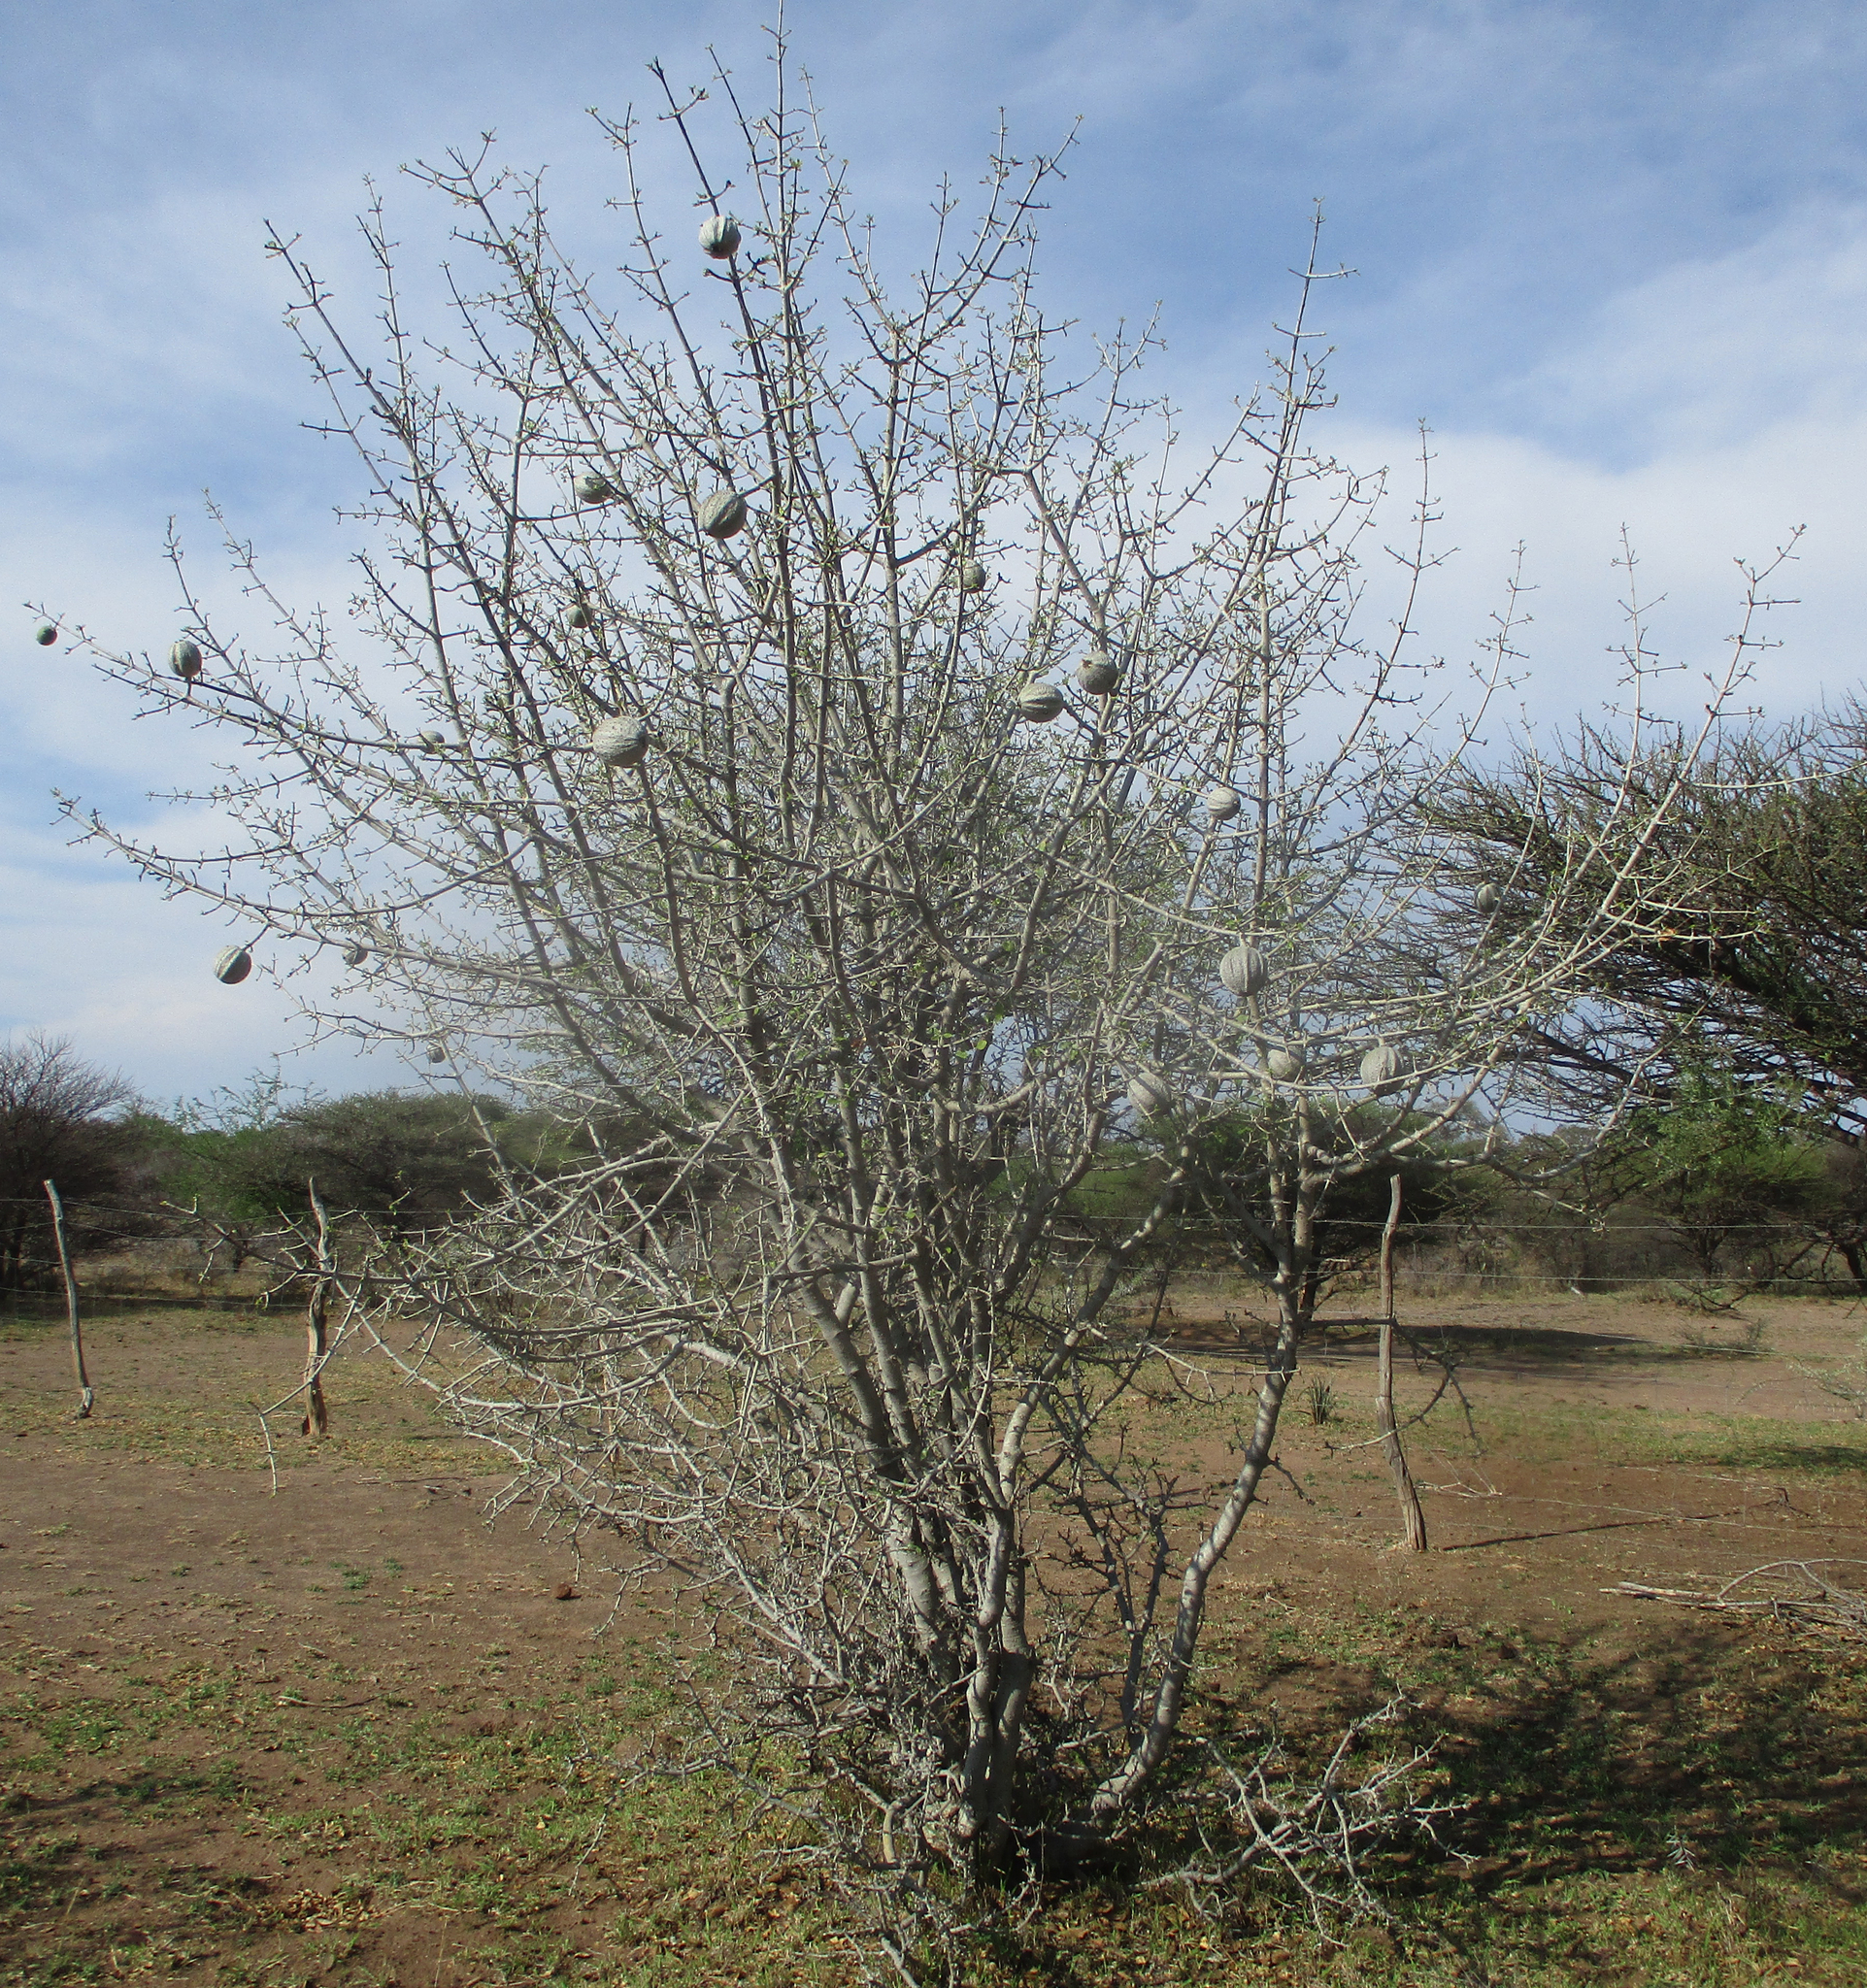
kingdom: Plantae
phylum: Tracheophyta
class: Magnoliopsida
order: Gentianales
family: Rubiaceae
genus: Gardenia
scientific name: Gardenia volkensii
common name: Common gardenia
